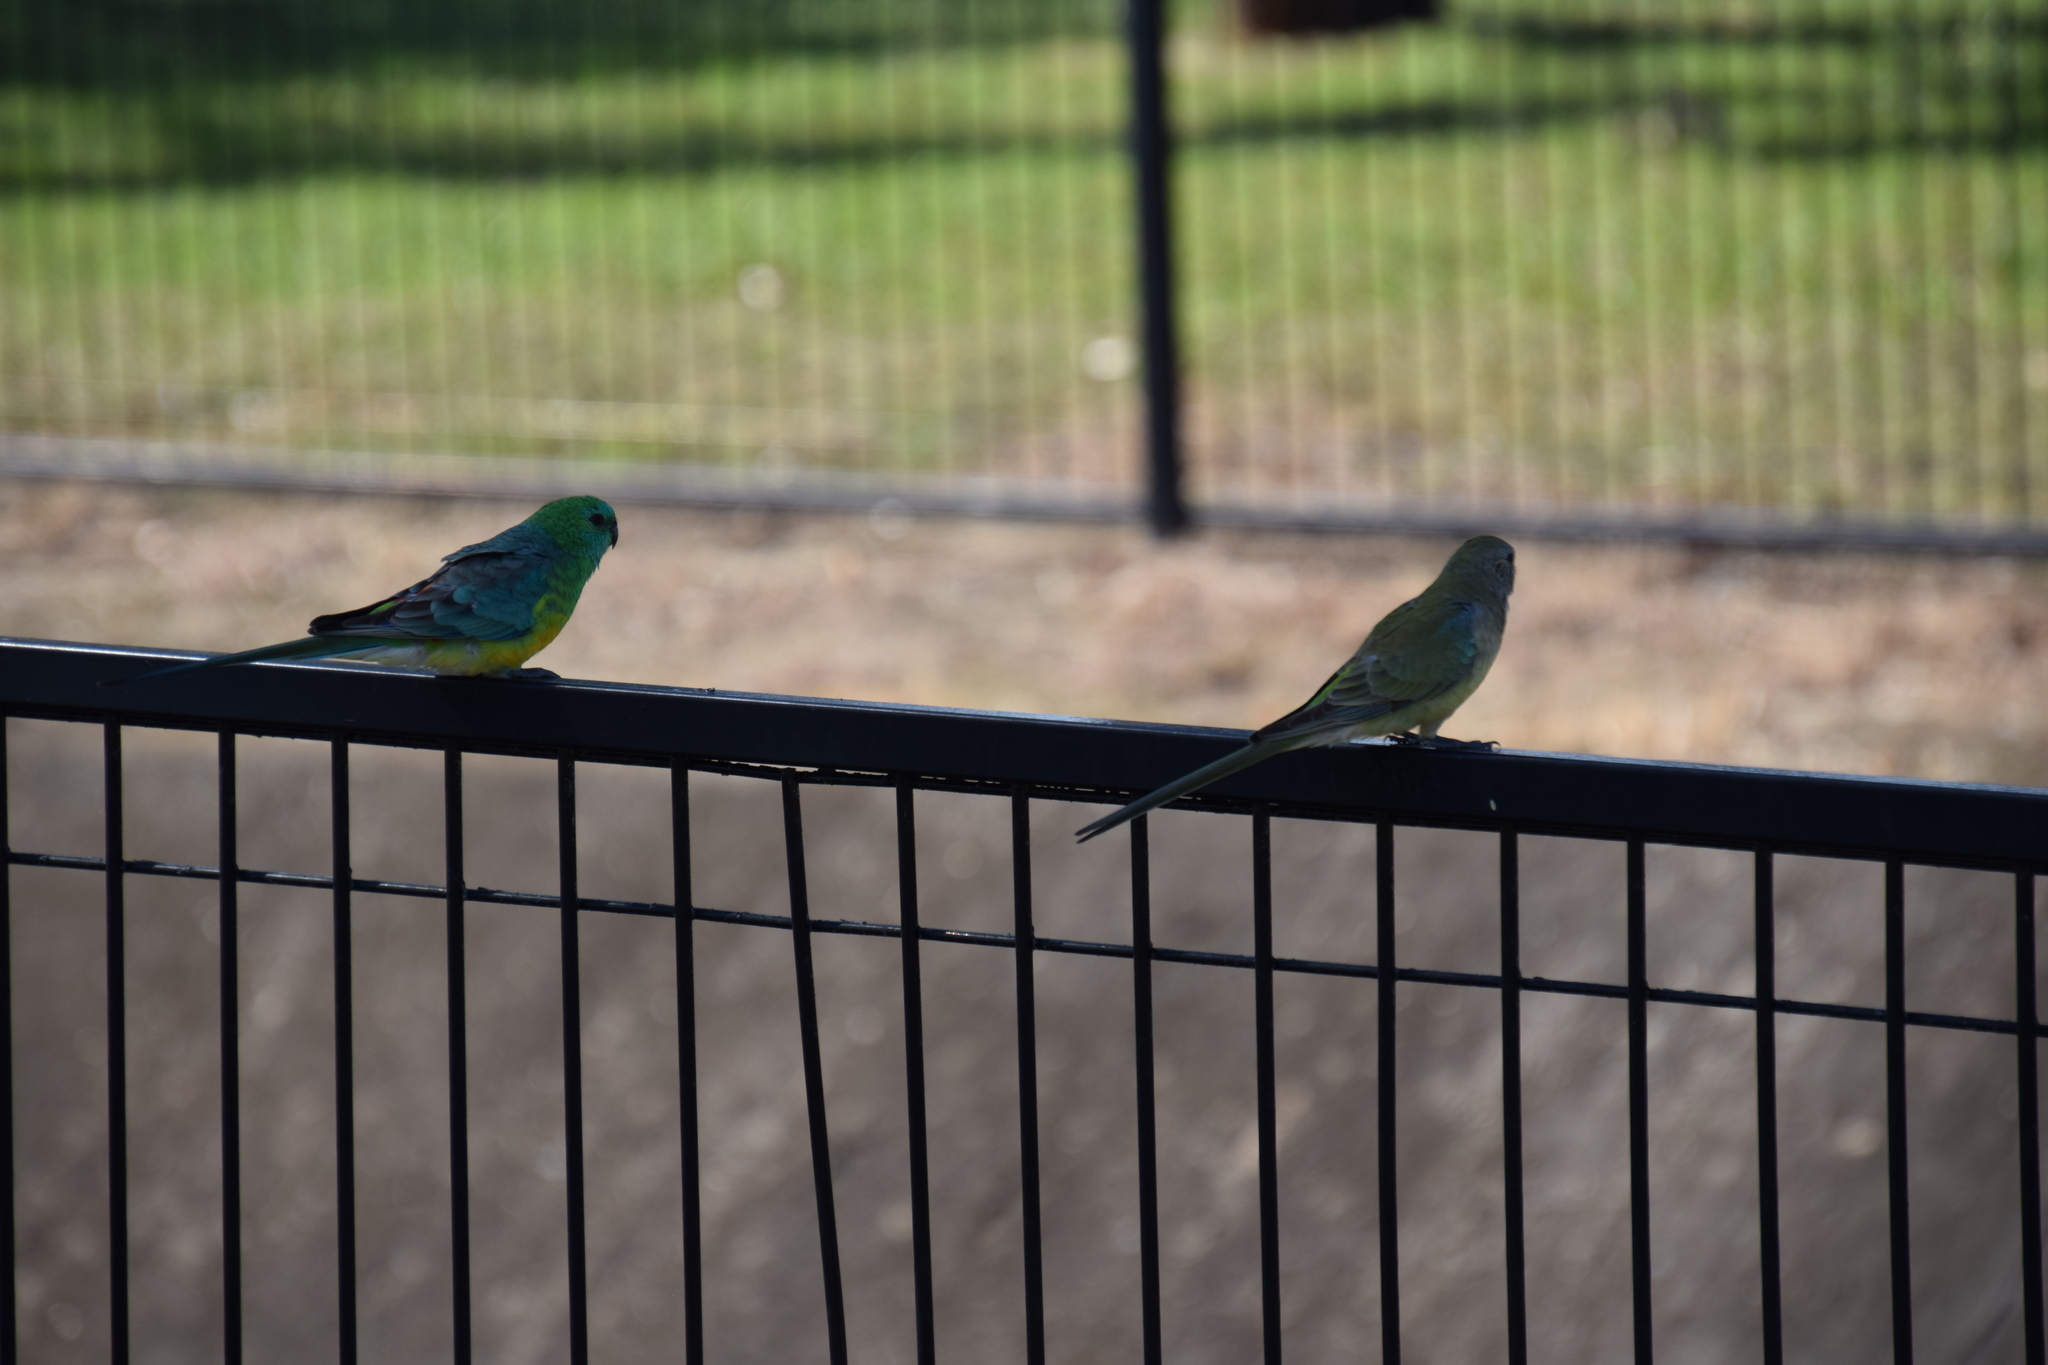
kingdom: Animalia
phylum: Chordata
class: Aves
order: Psittaciformes
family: Psittacidae
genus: Psephotus
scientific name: Psephotus haematonotus
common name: Red-rumped parrot
